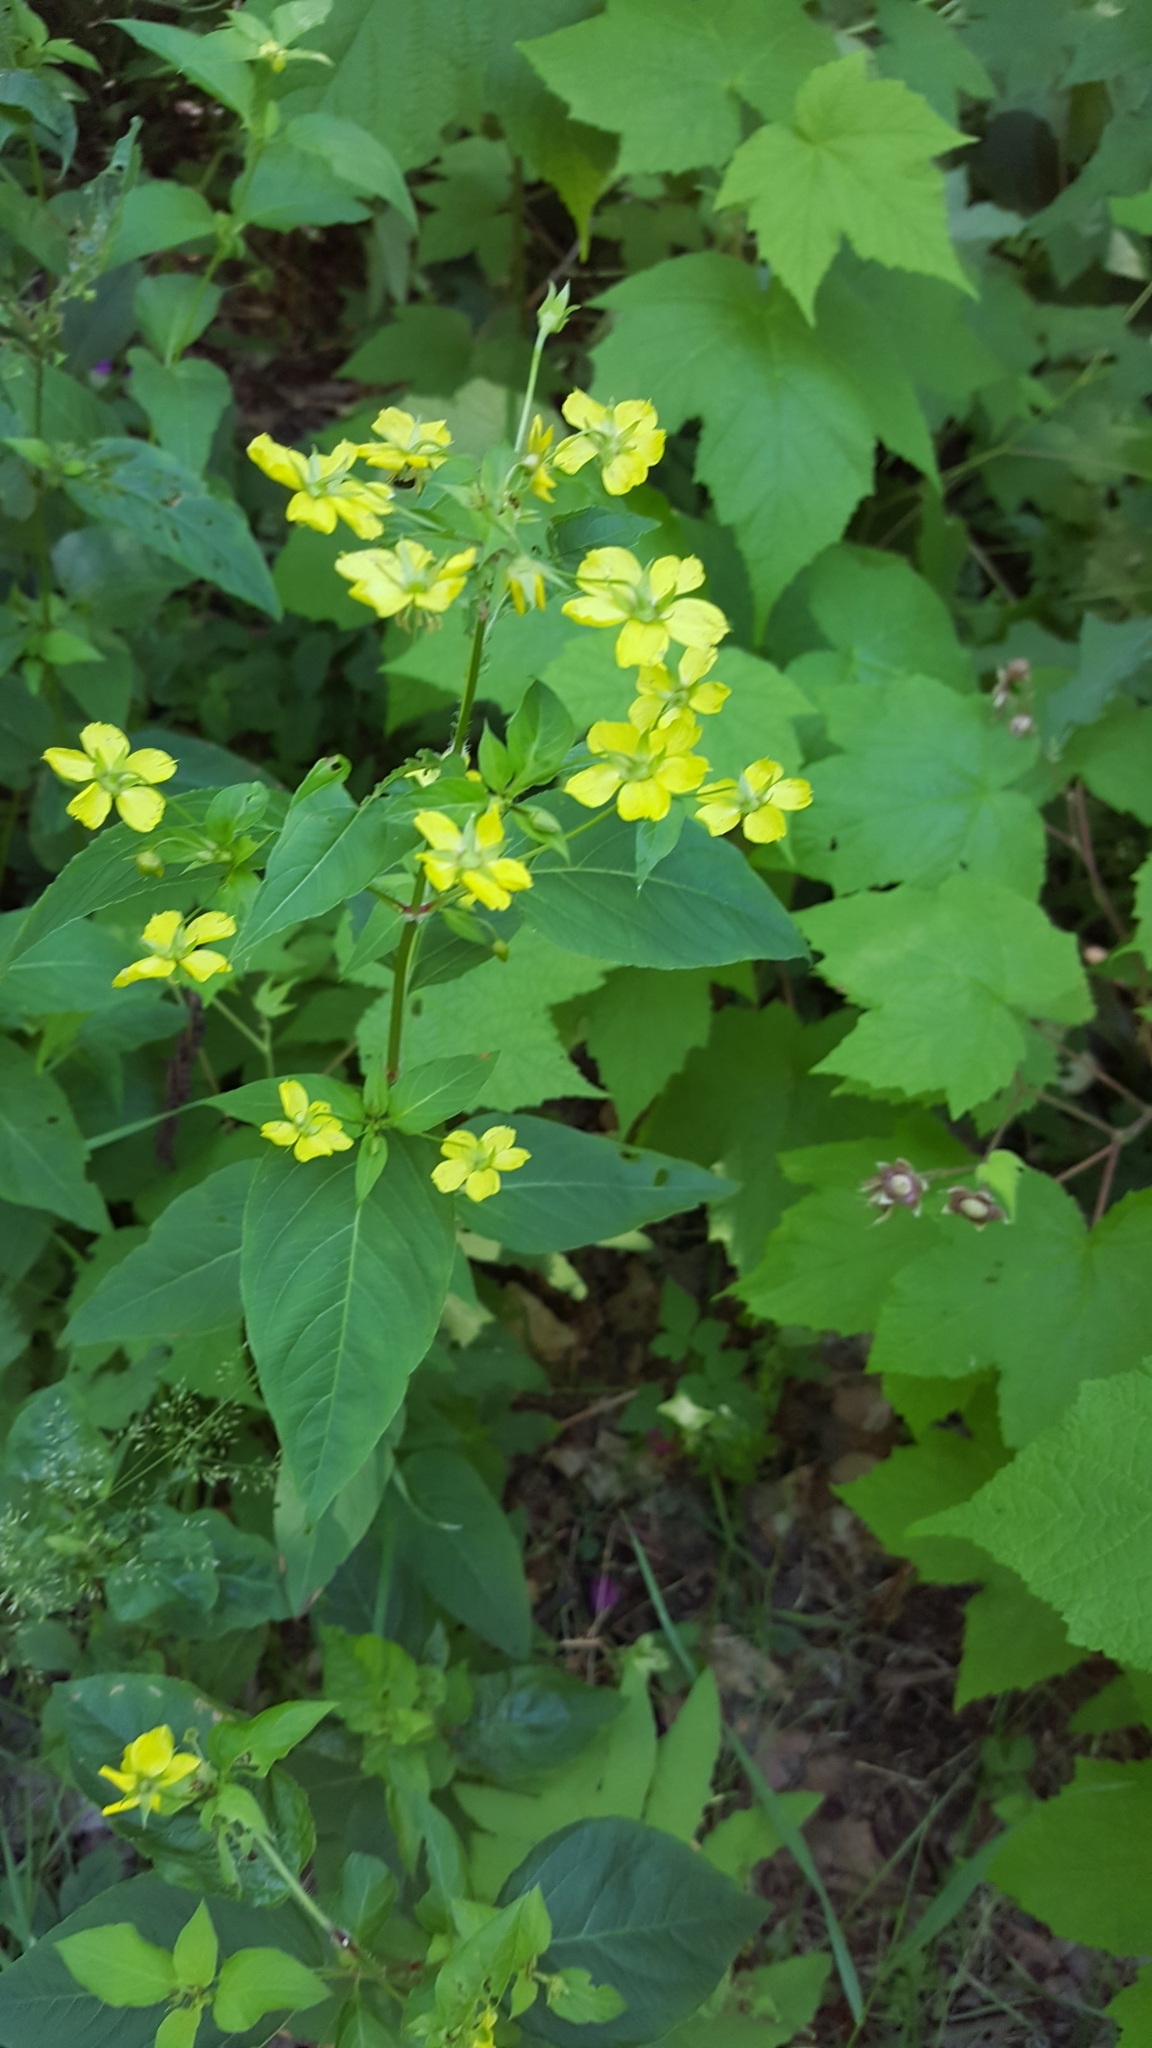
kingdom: Plantae
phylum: Tracheophyta
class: Magnoliopsida
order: Ericales
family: Primulaceae
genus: Lysimachia
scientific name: Lysimachia ciliata
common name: Fringed loosestrife
